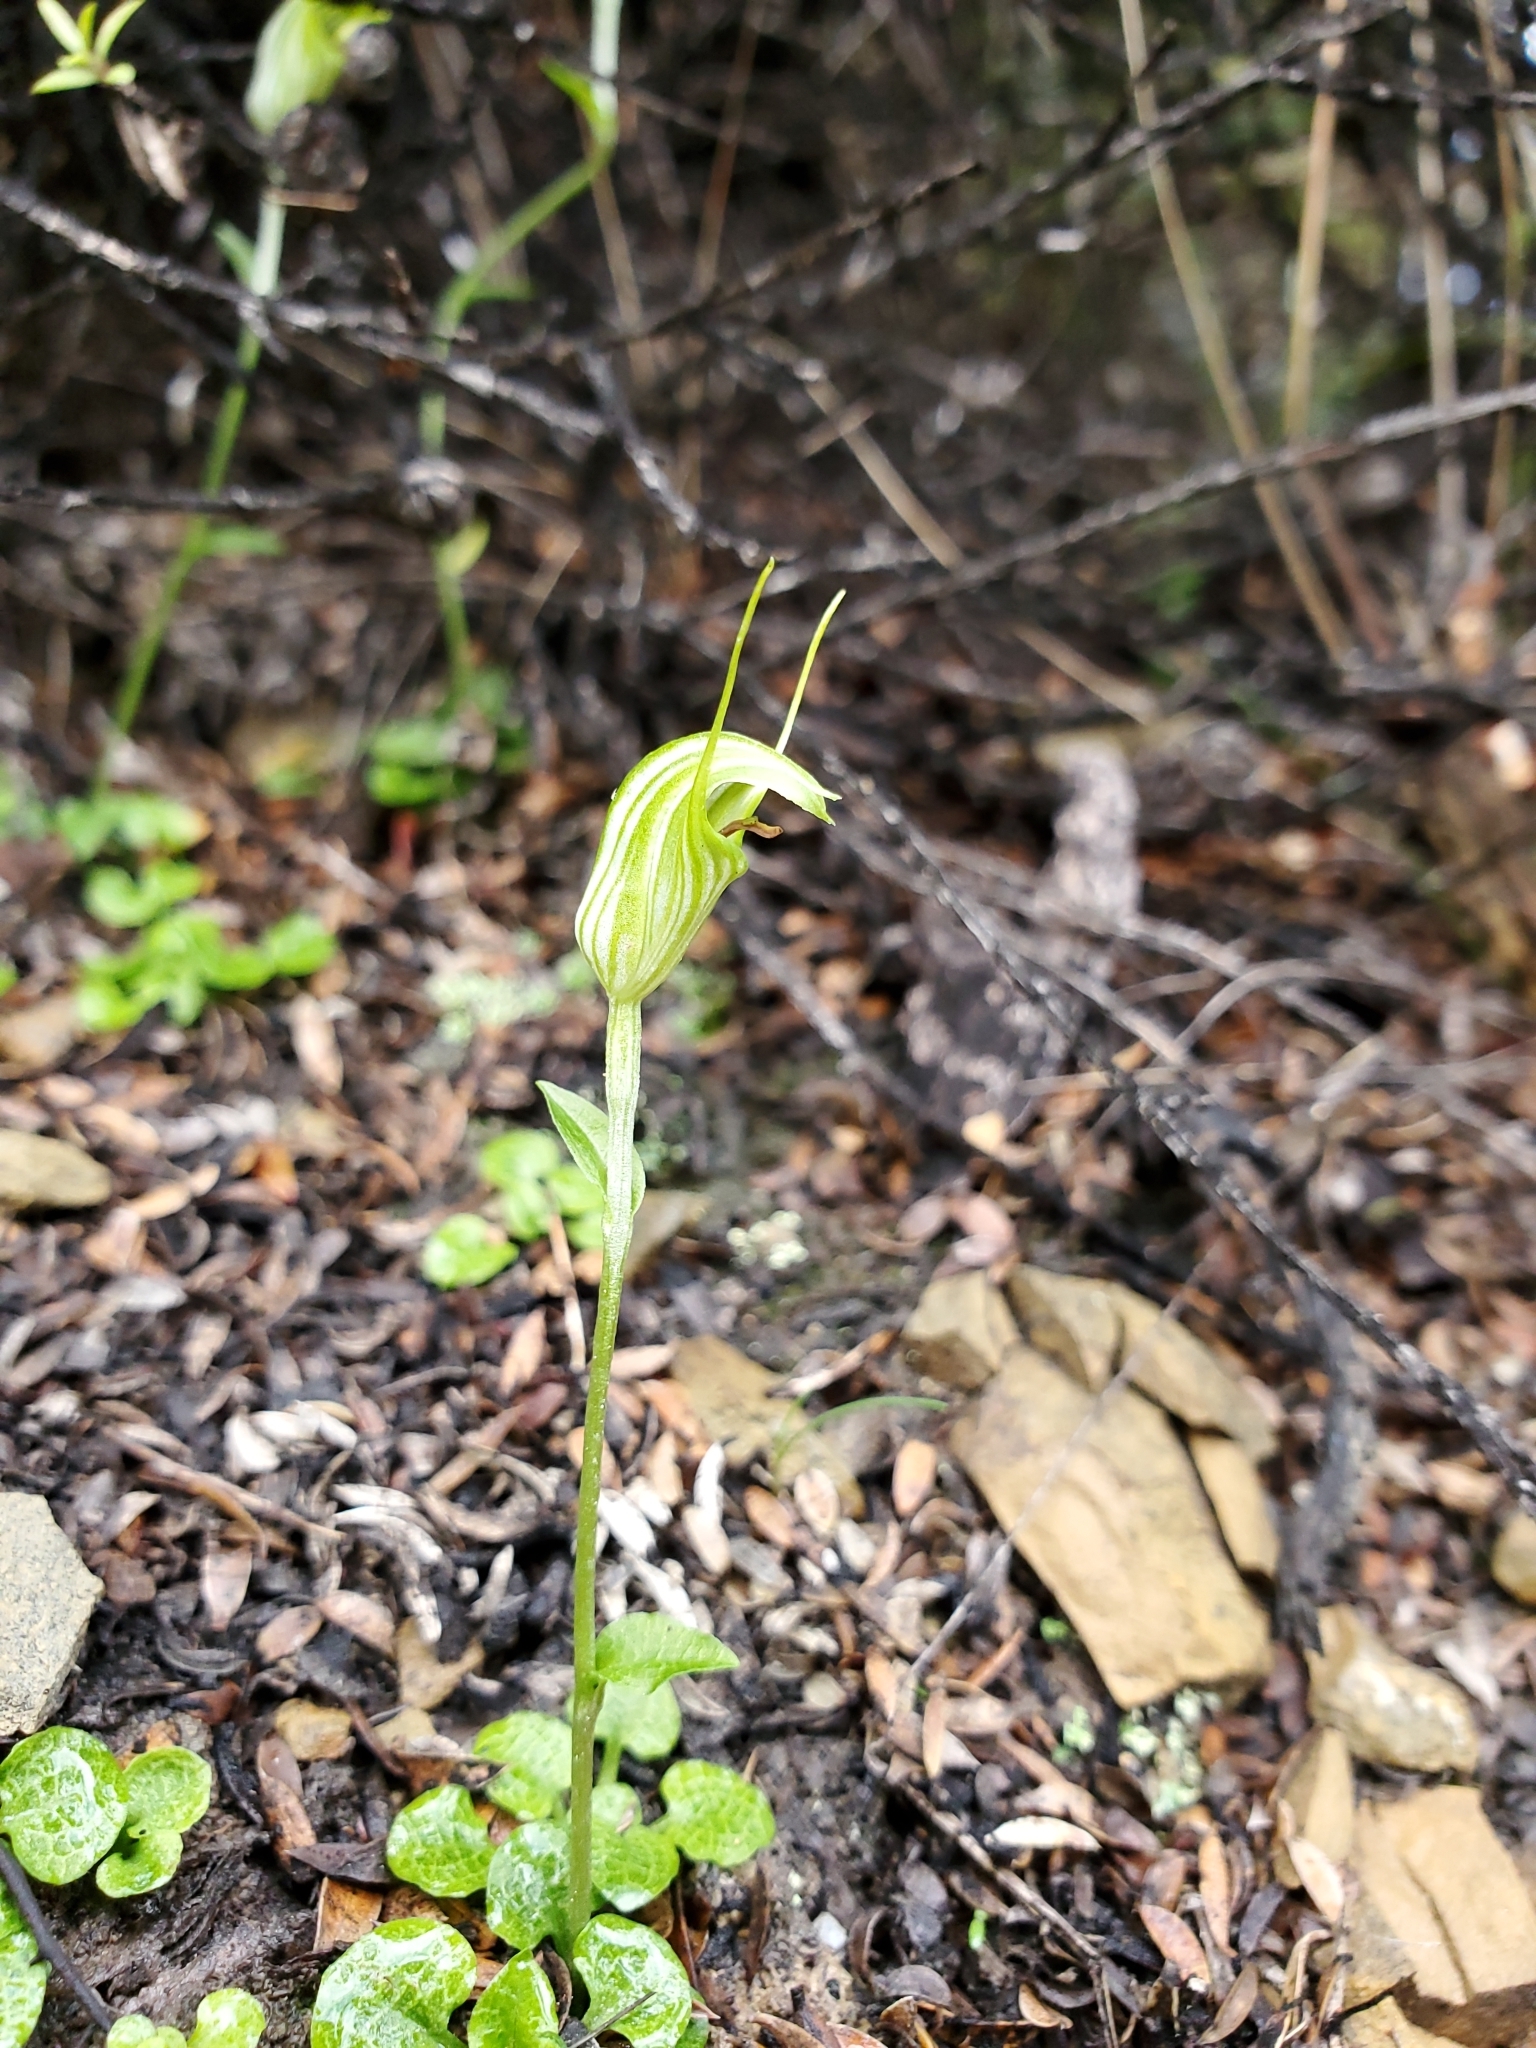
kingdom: Plantae
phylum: Tracheophyta
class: Liliopsida
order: Asparagales
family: Orchidaceae
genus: Pterostylis
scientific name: Pterostylis trullifolia
